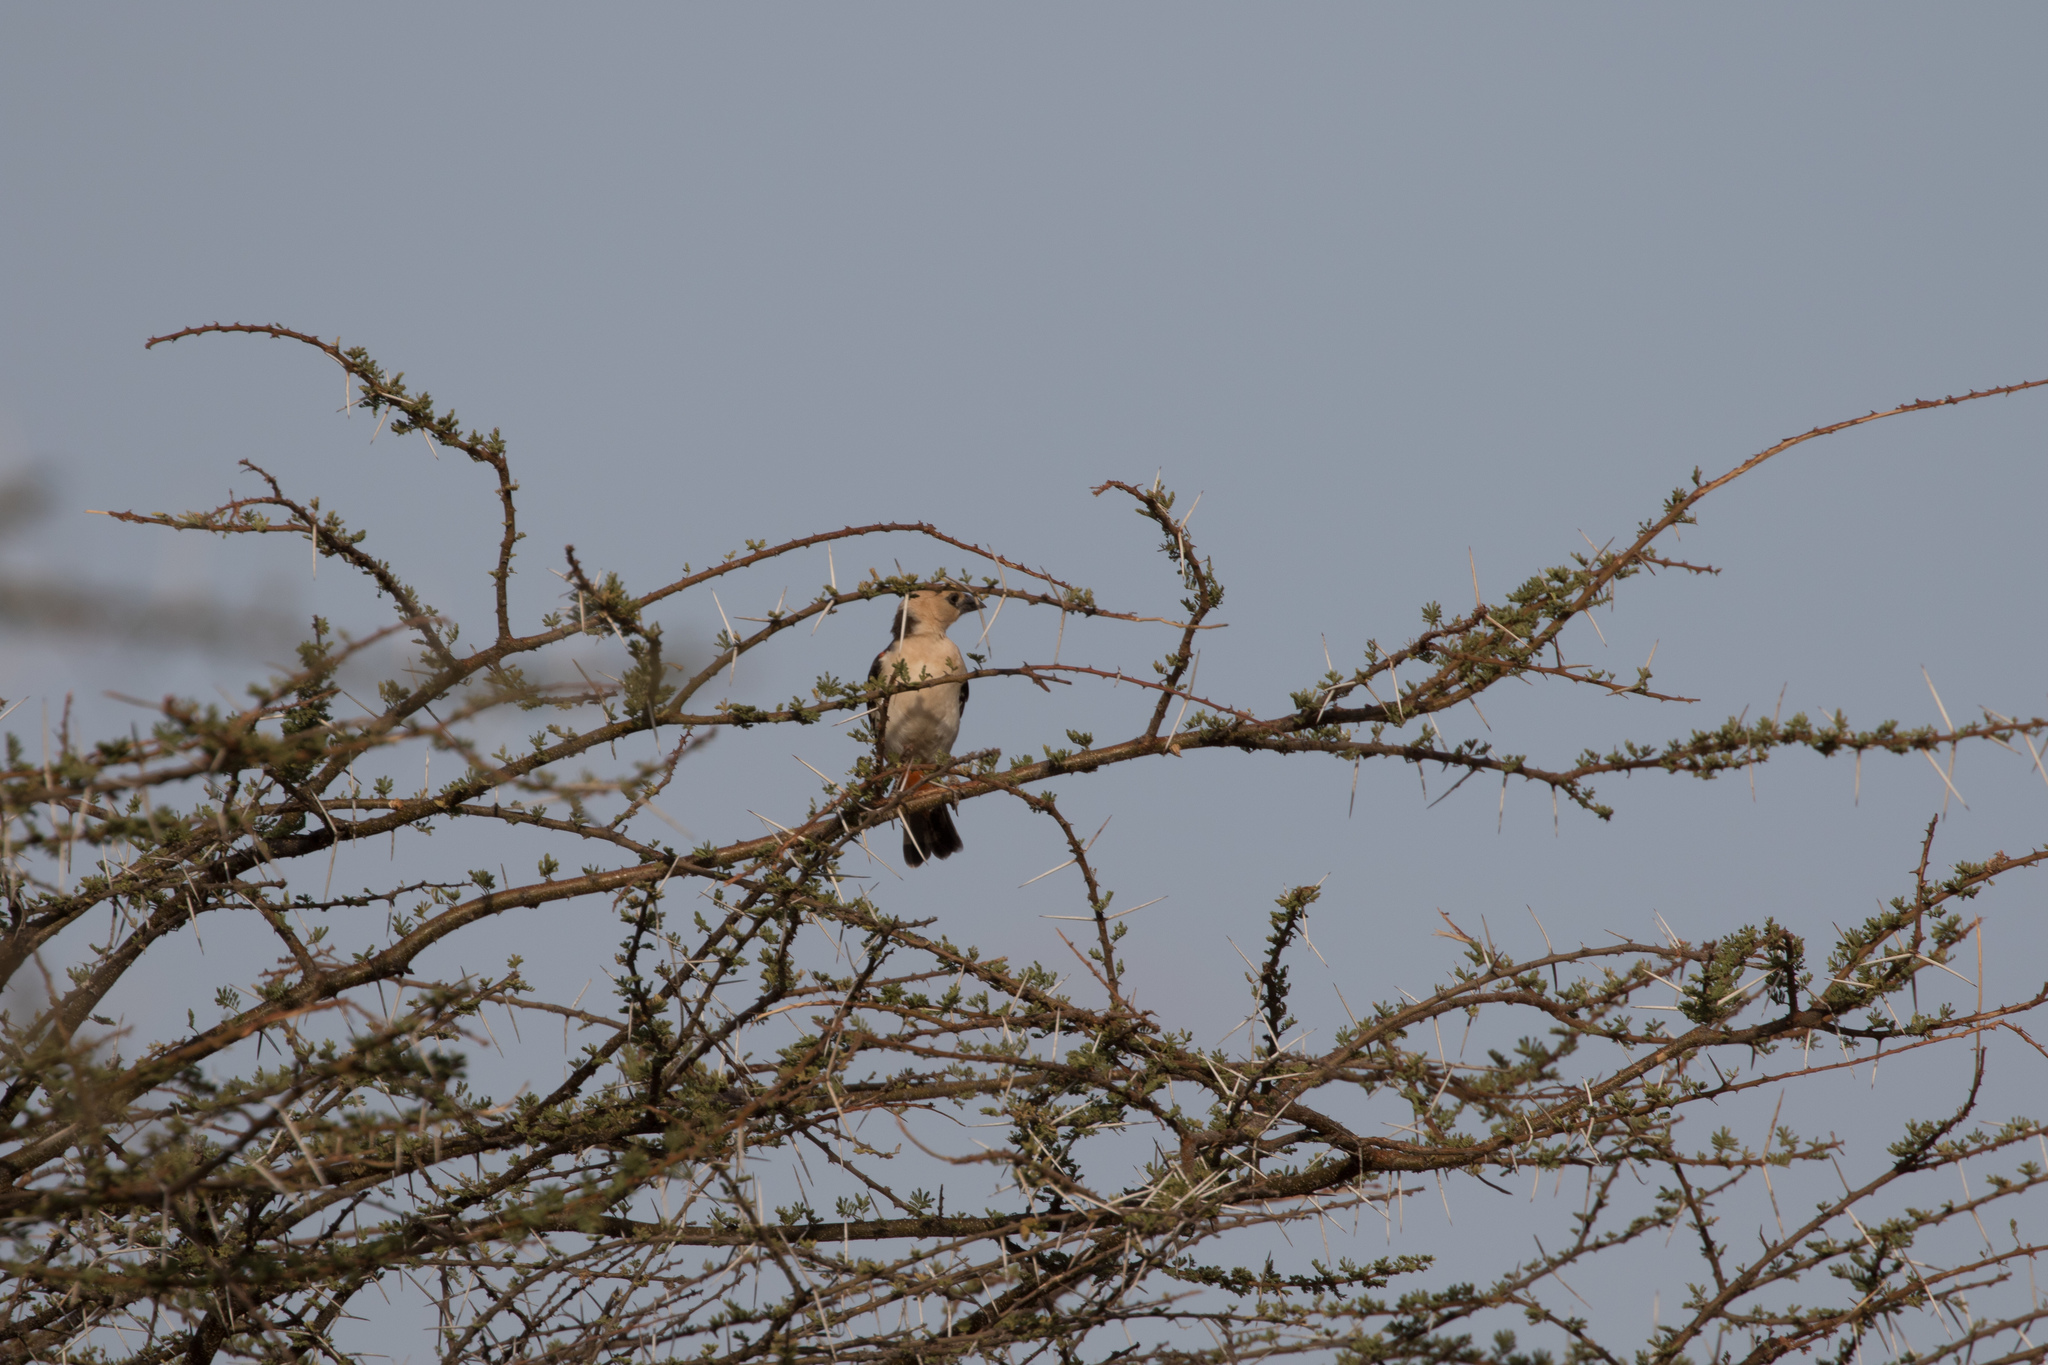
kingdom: Animalia
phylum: Chordata
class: Aves
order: Passeriformes
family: Ploceidae
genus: Dinemellia
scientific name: Dinemellia dinemelli
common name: White-headed buffalo weaver
